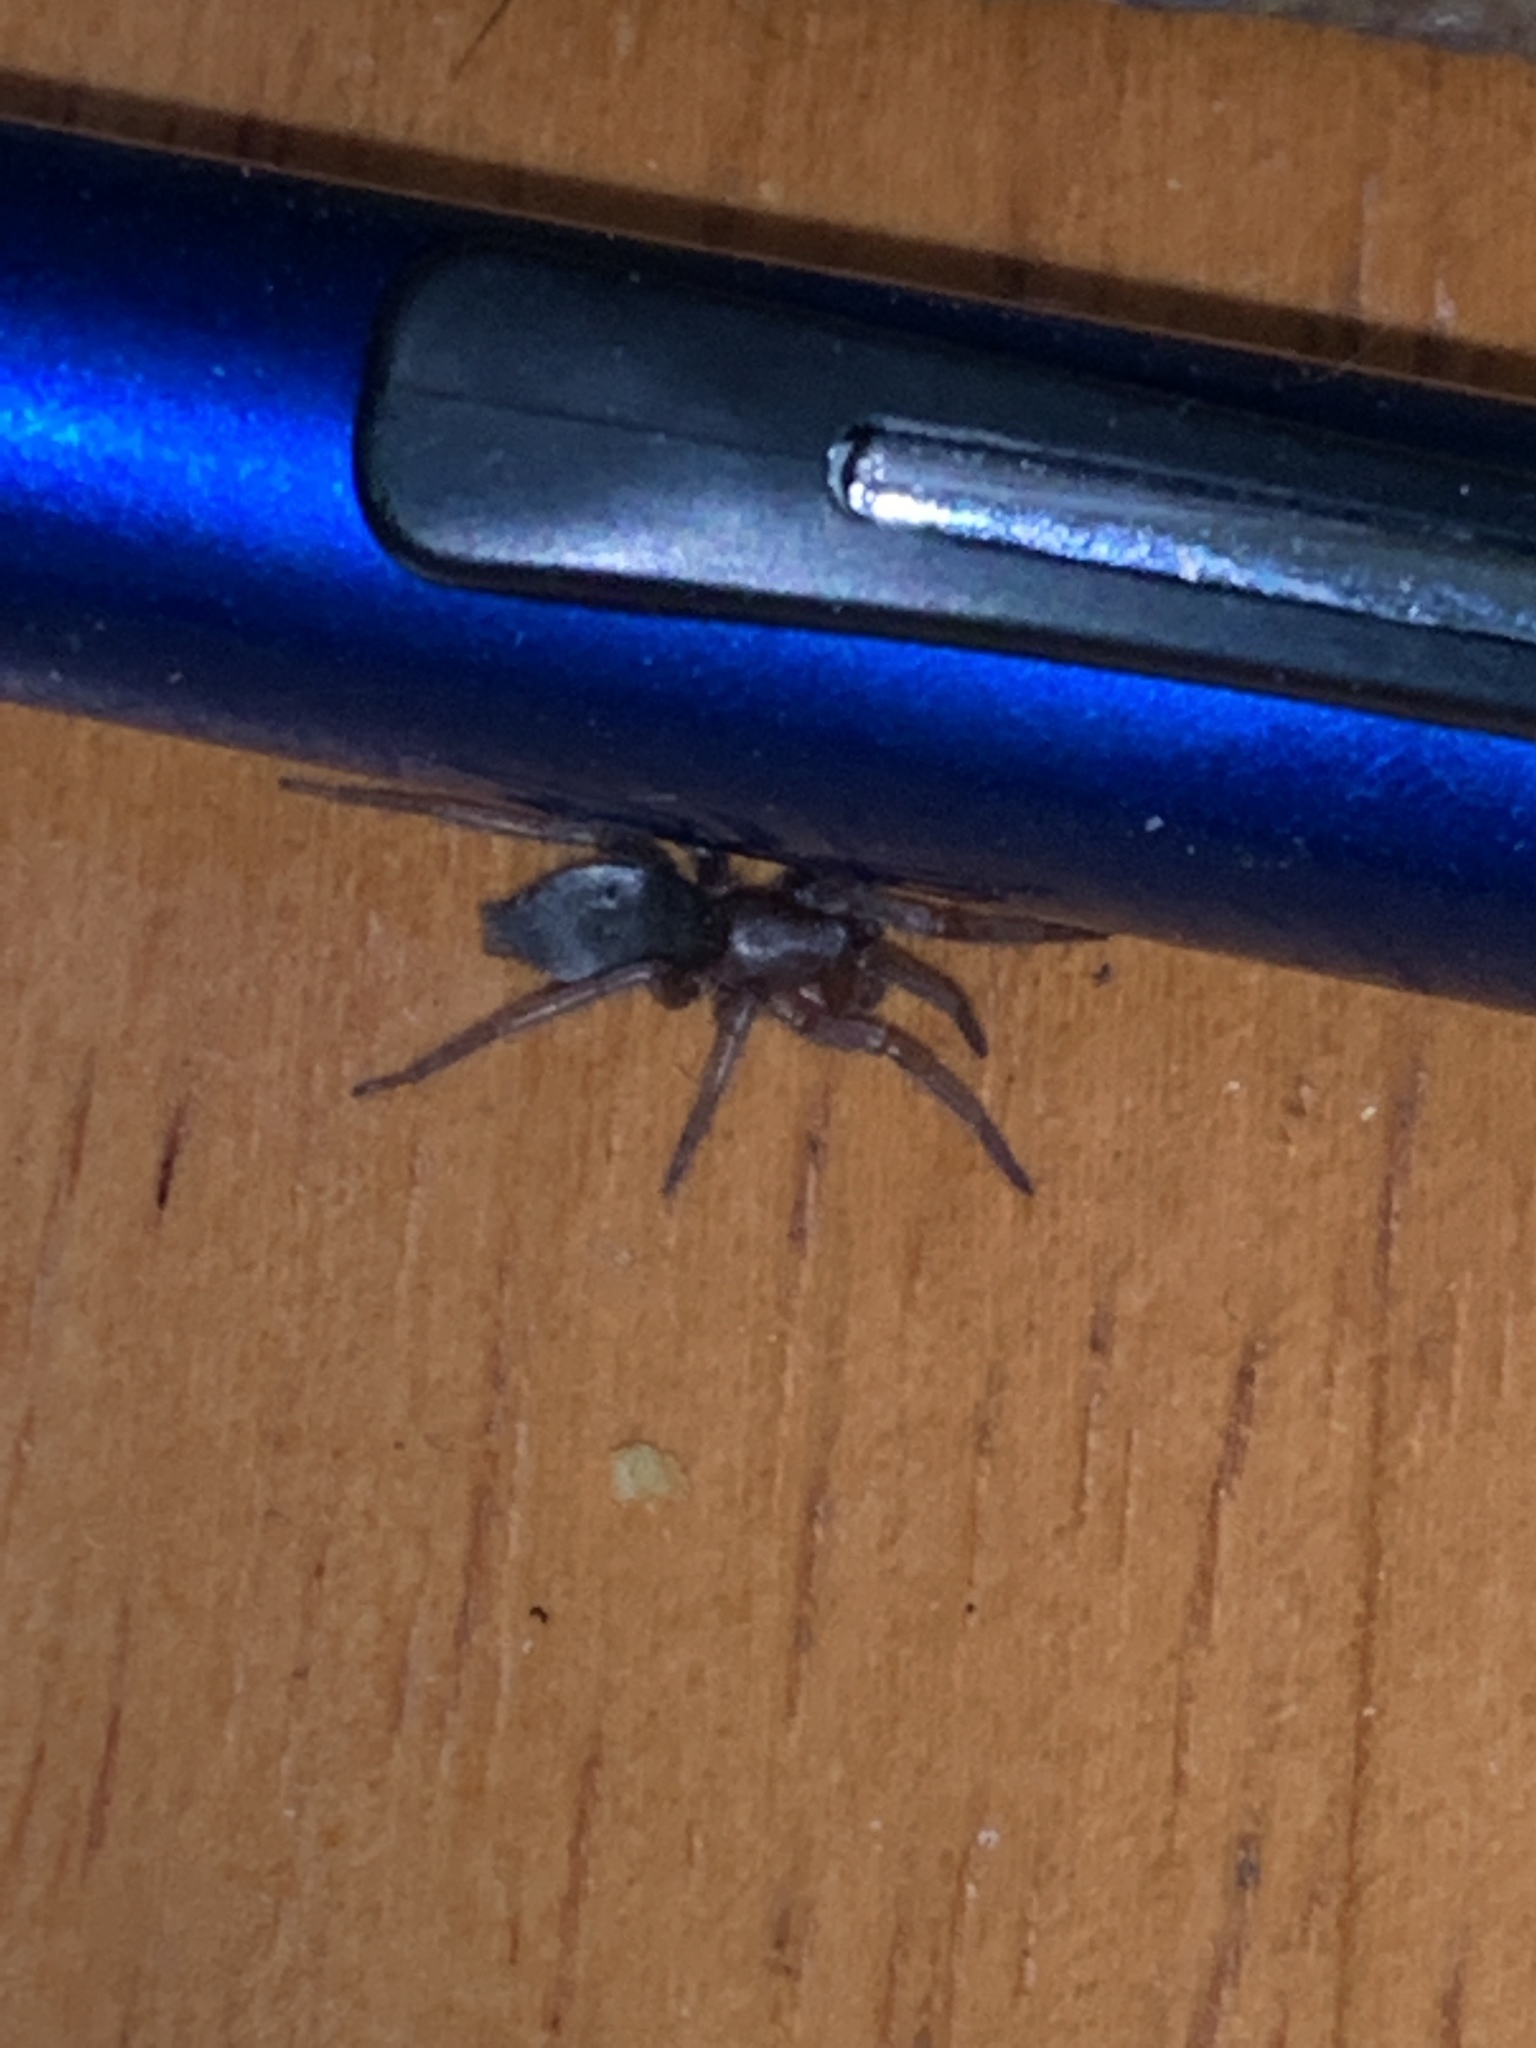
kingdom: Animalia
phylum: Arthropoda
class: Arachnida
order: Araneae
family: Gnaphosidae
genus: Scotophaeus
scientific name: Scotophaeus blackwalli
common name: Mouse spider
